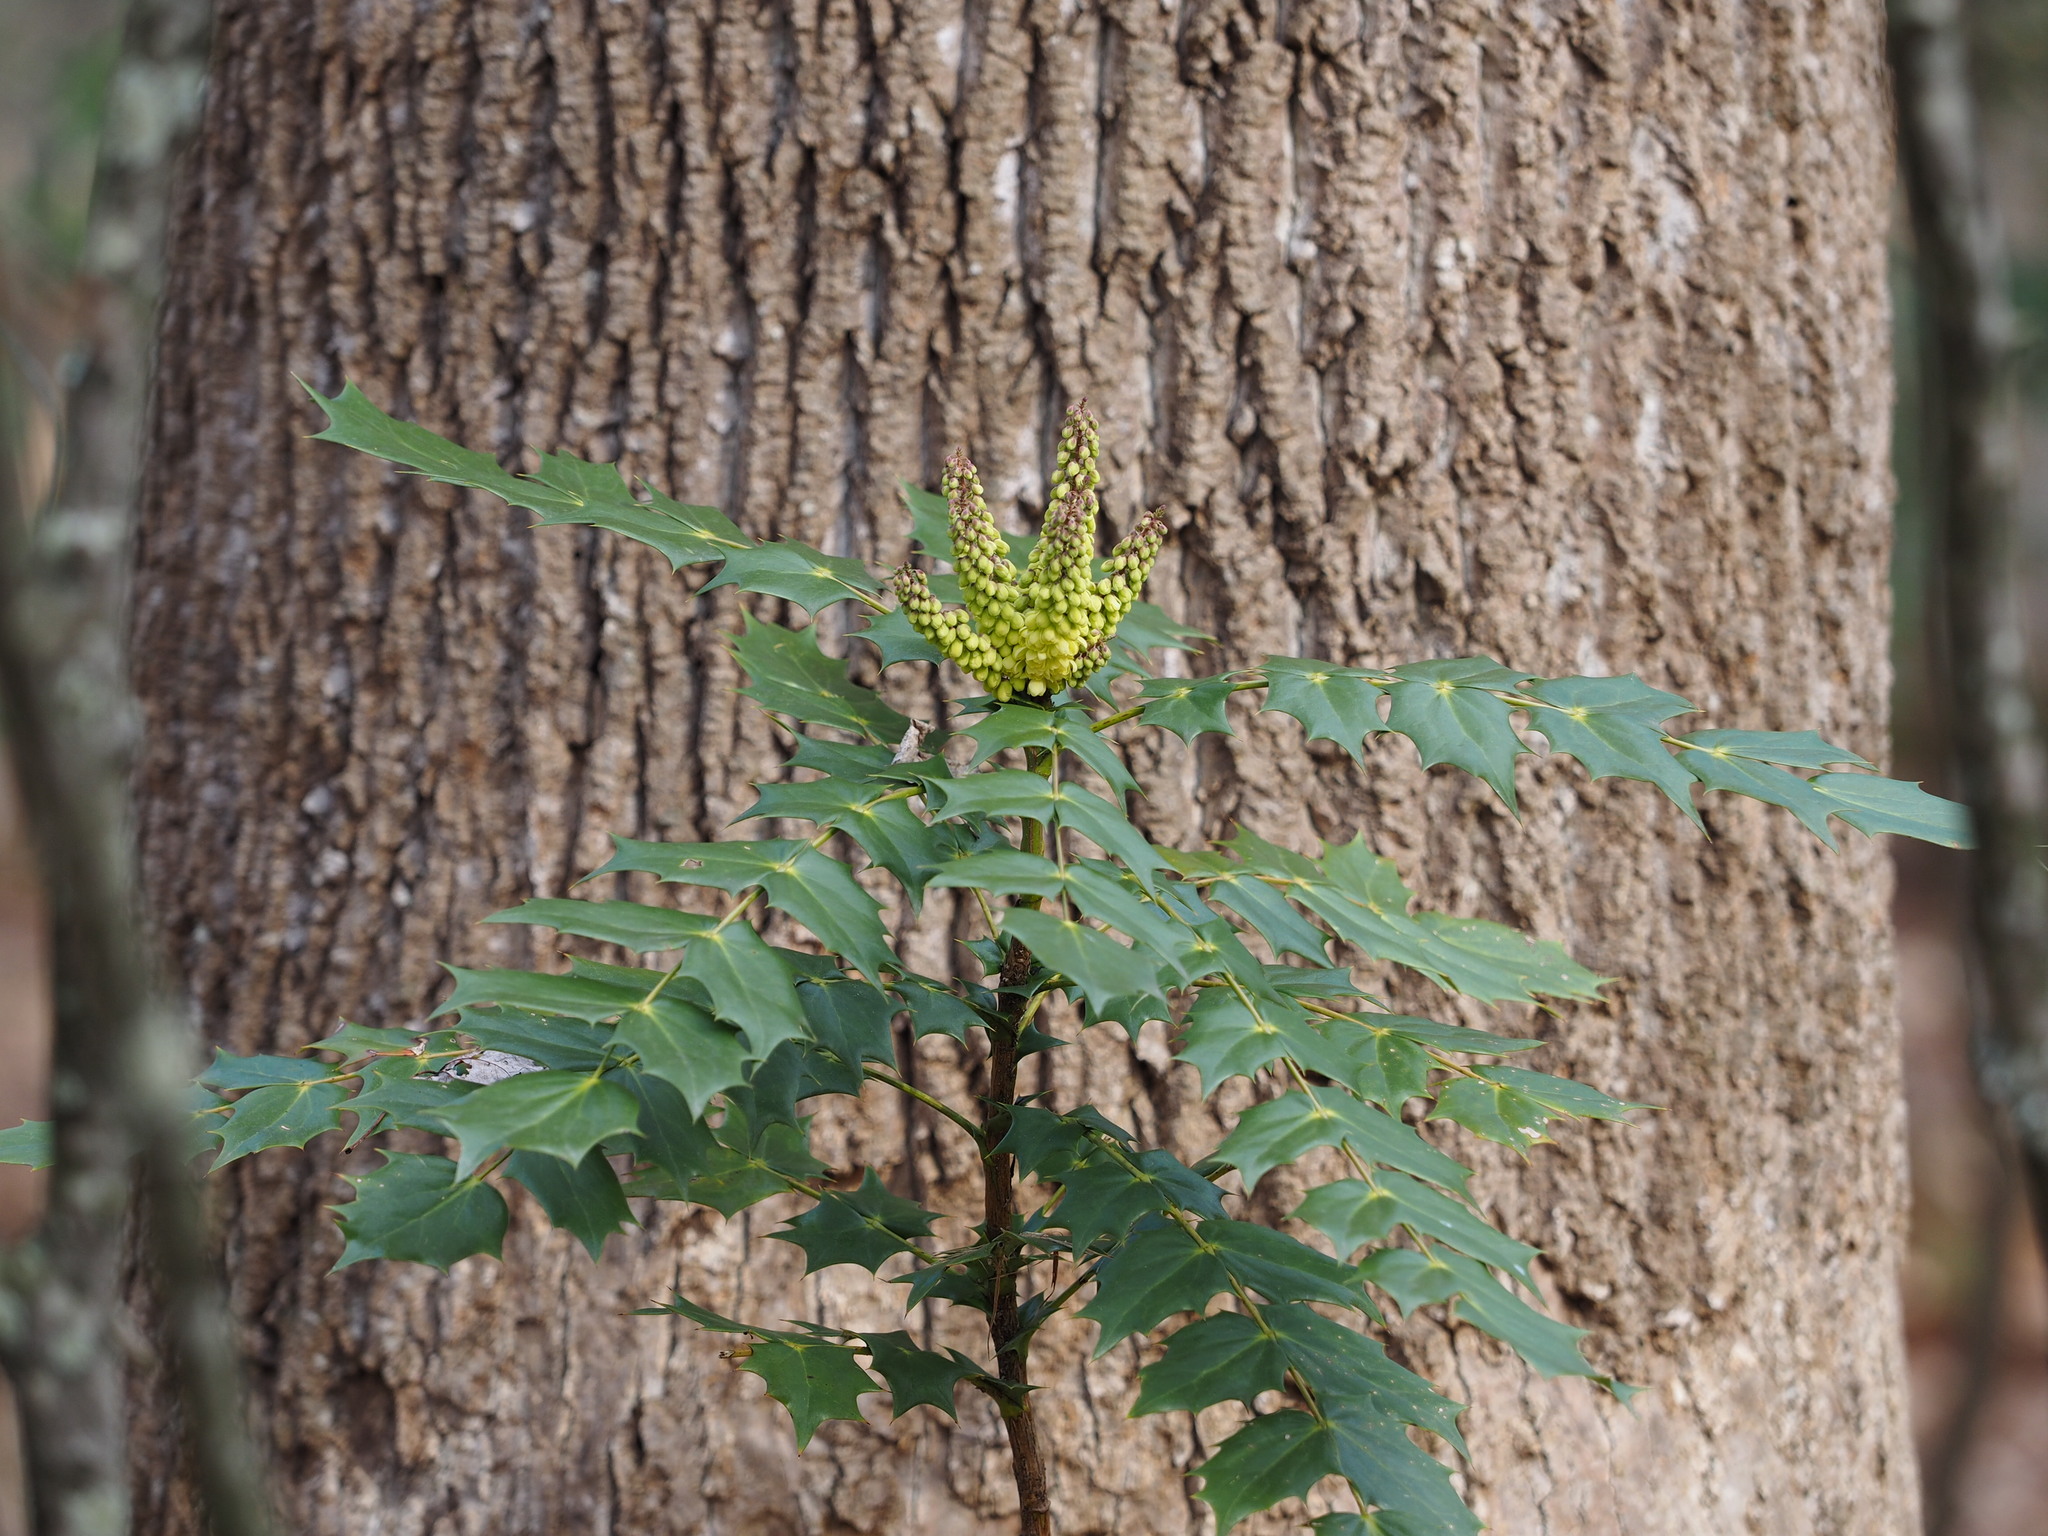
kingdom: Plantae
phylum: Tracheophyta
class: Magnoliopsida
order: Ranunculales
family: Berberidaceae
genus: Mahonia
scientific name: Mahonia bealei
